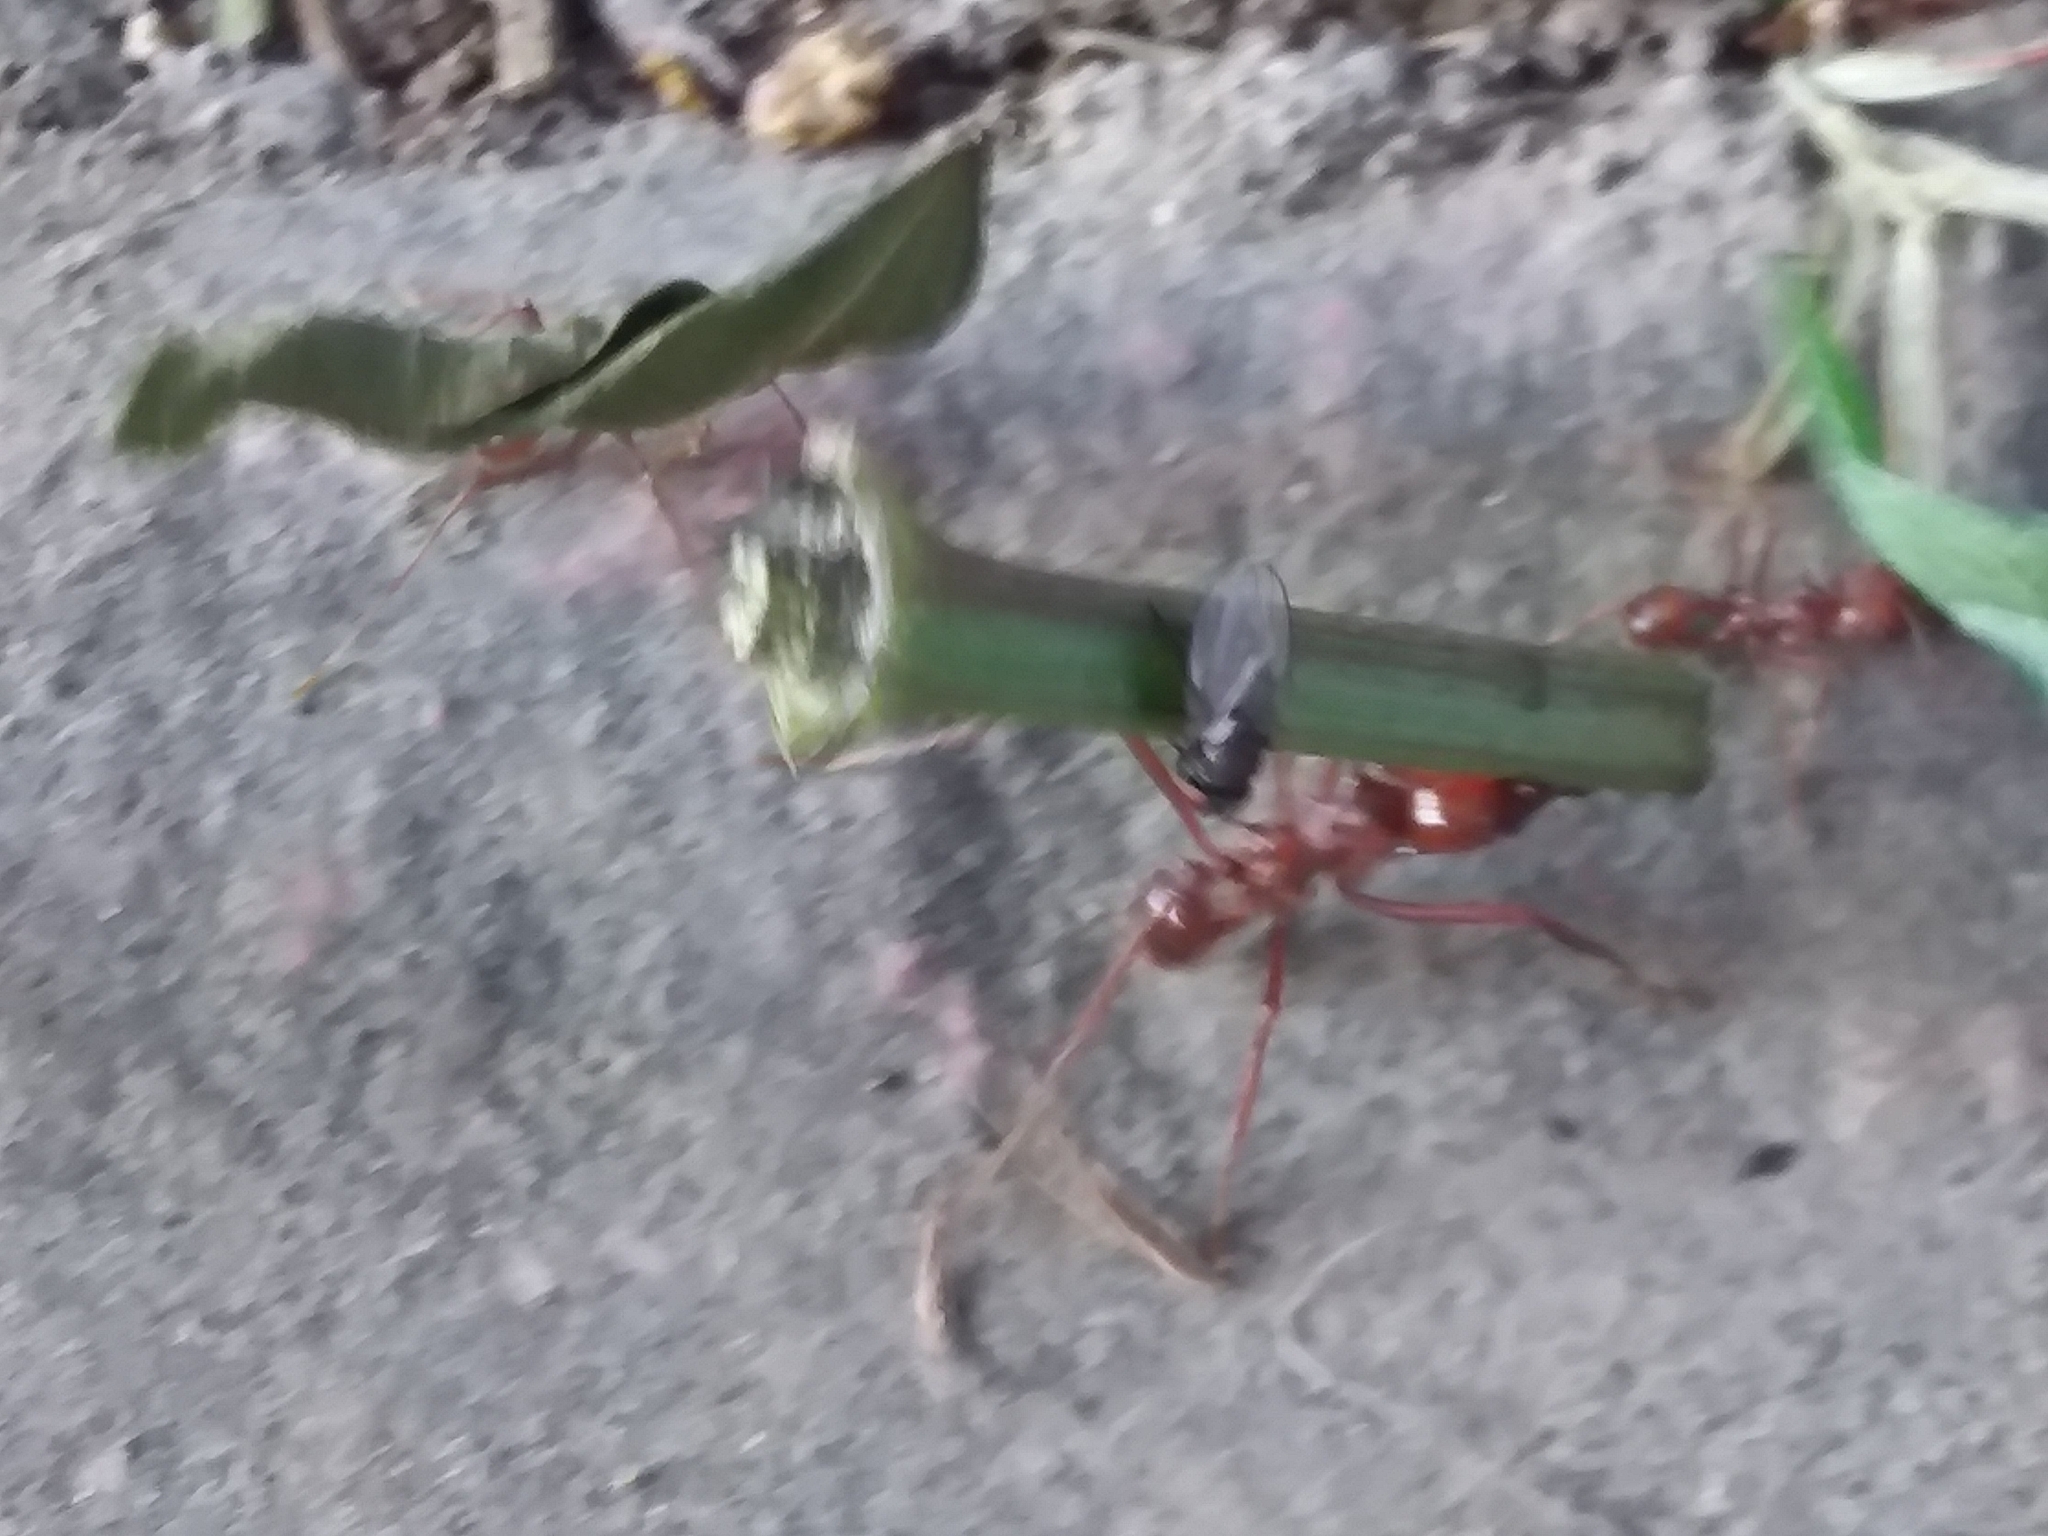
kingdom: Animalia
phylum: Arthropoda
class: Insecta
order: Hymenoptera
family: Formicidae
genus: Atta
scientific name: Atta mexicana
